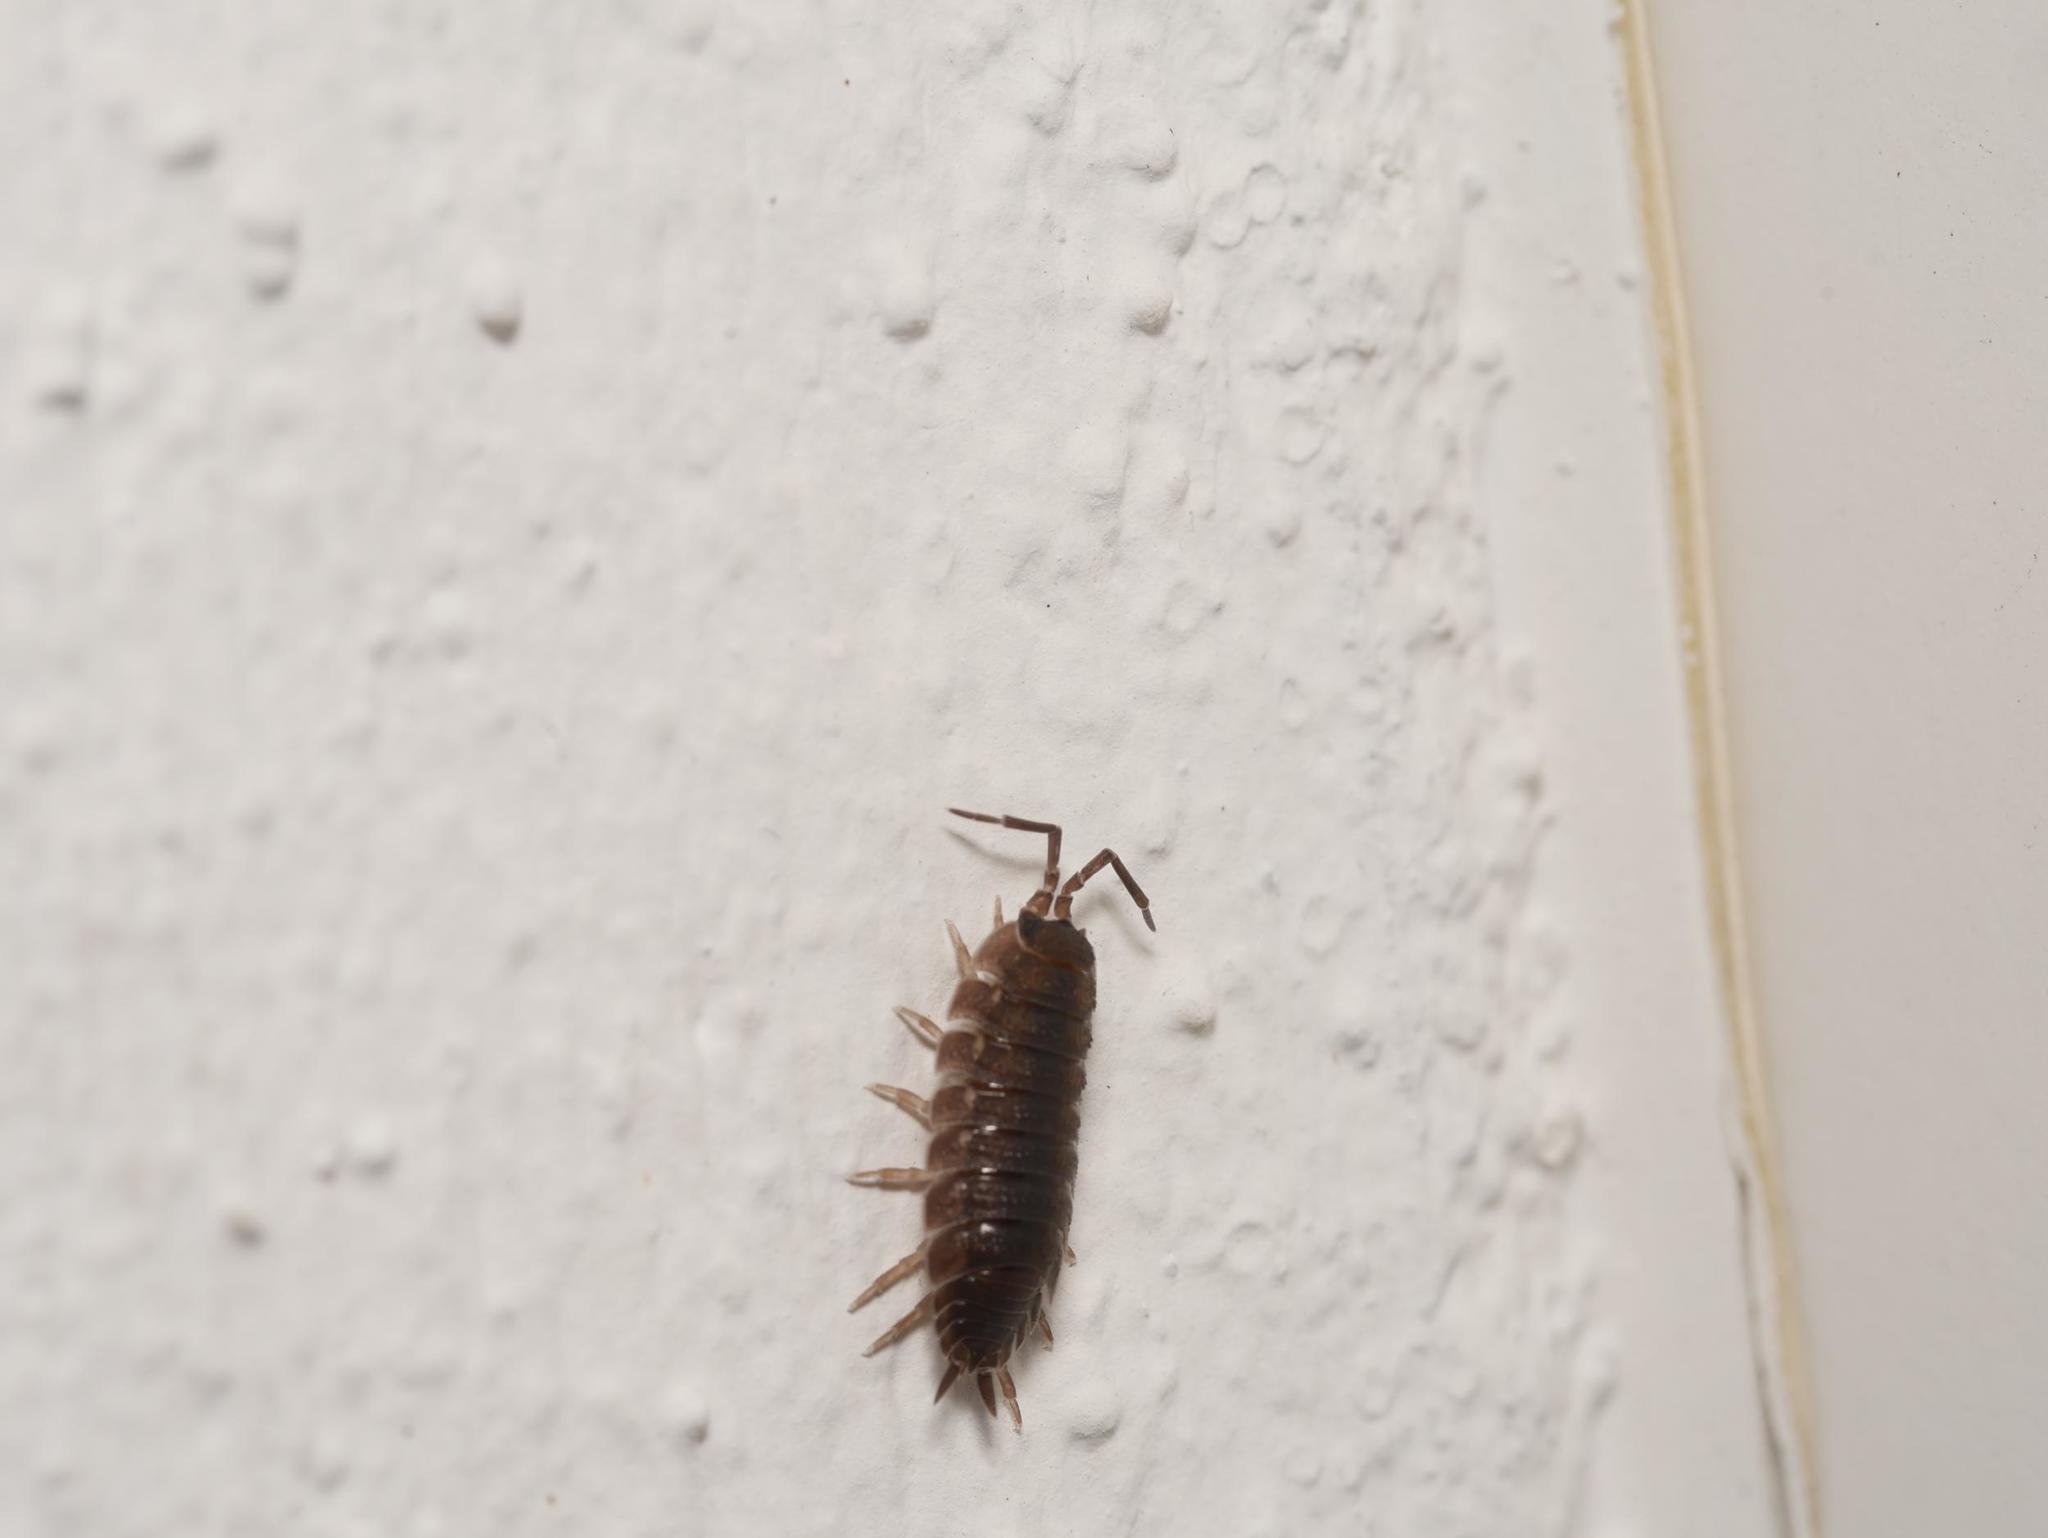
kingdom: Animalia
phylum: Arthropoda
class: Malacostraca
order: Isopoda
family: Porcellionidae
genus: Porcellio
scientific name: Porcellio scaber
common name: Common rough woodlouse
